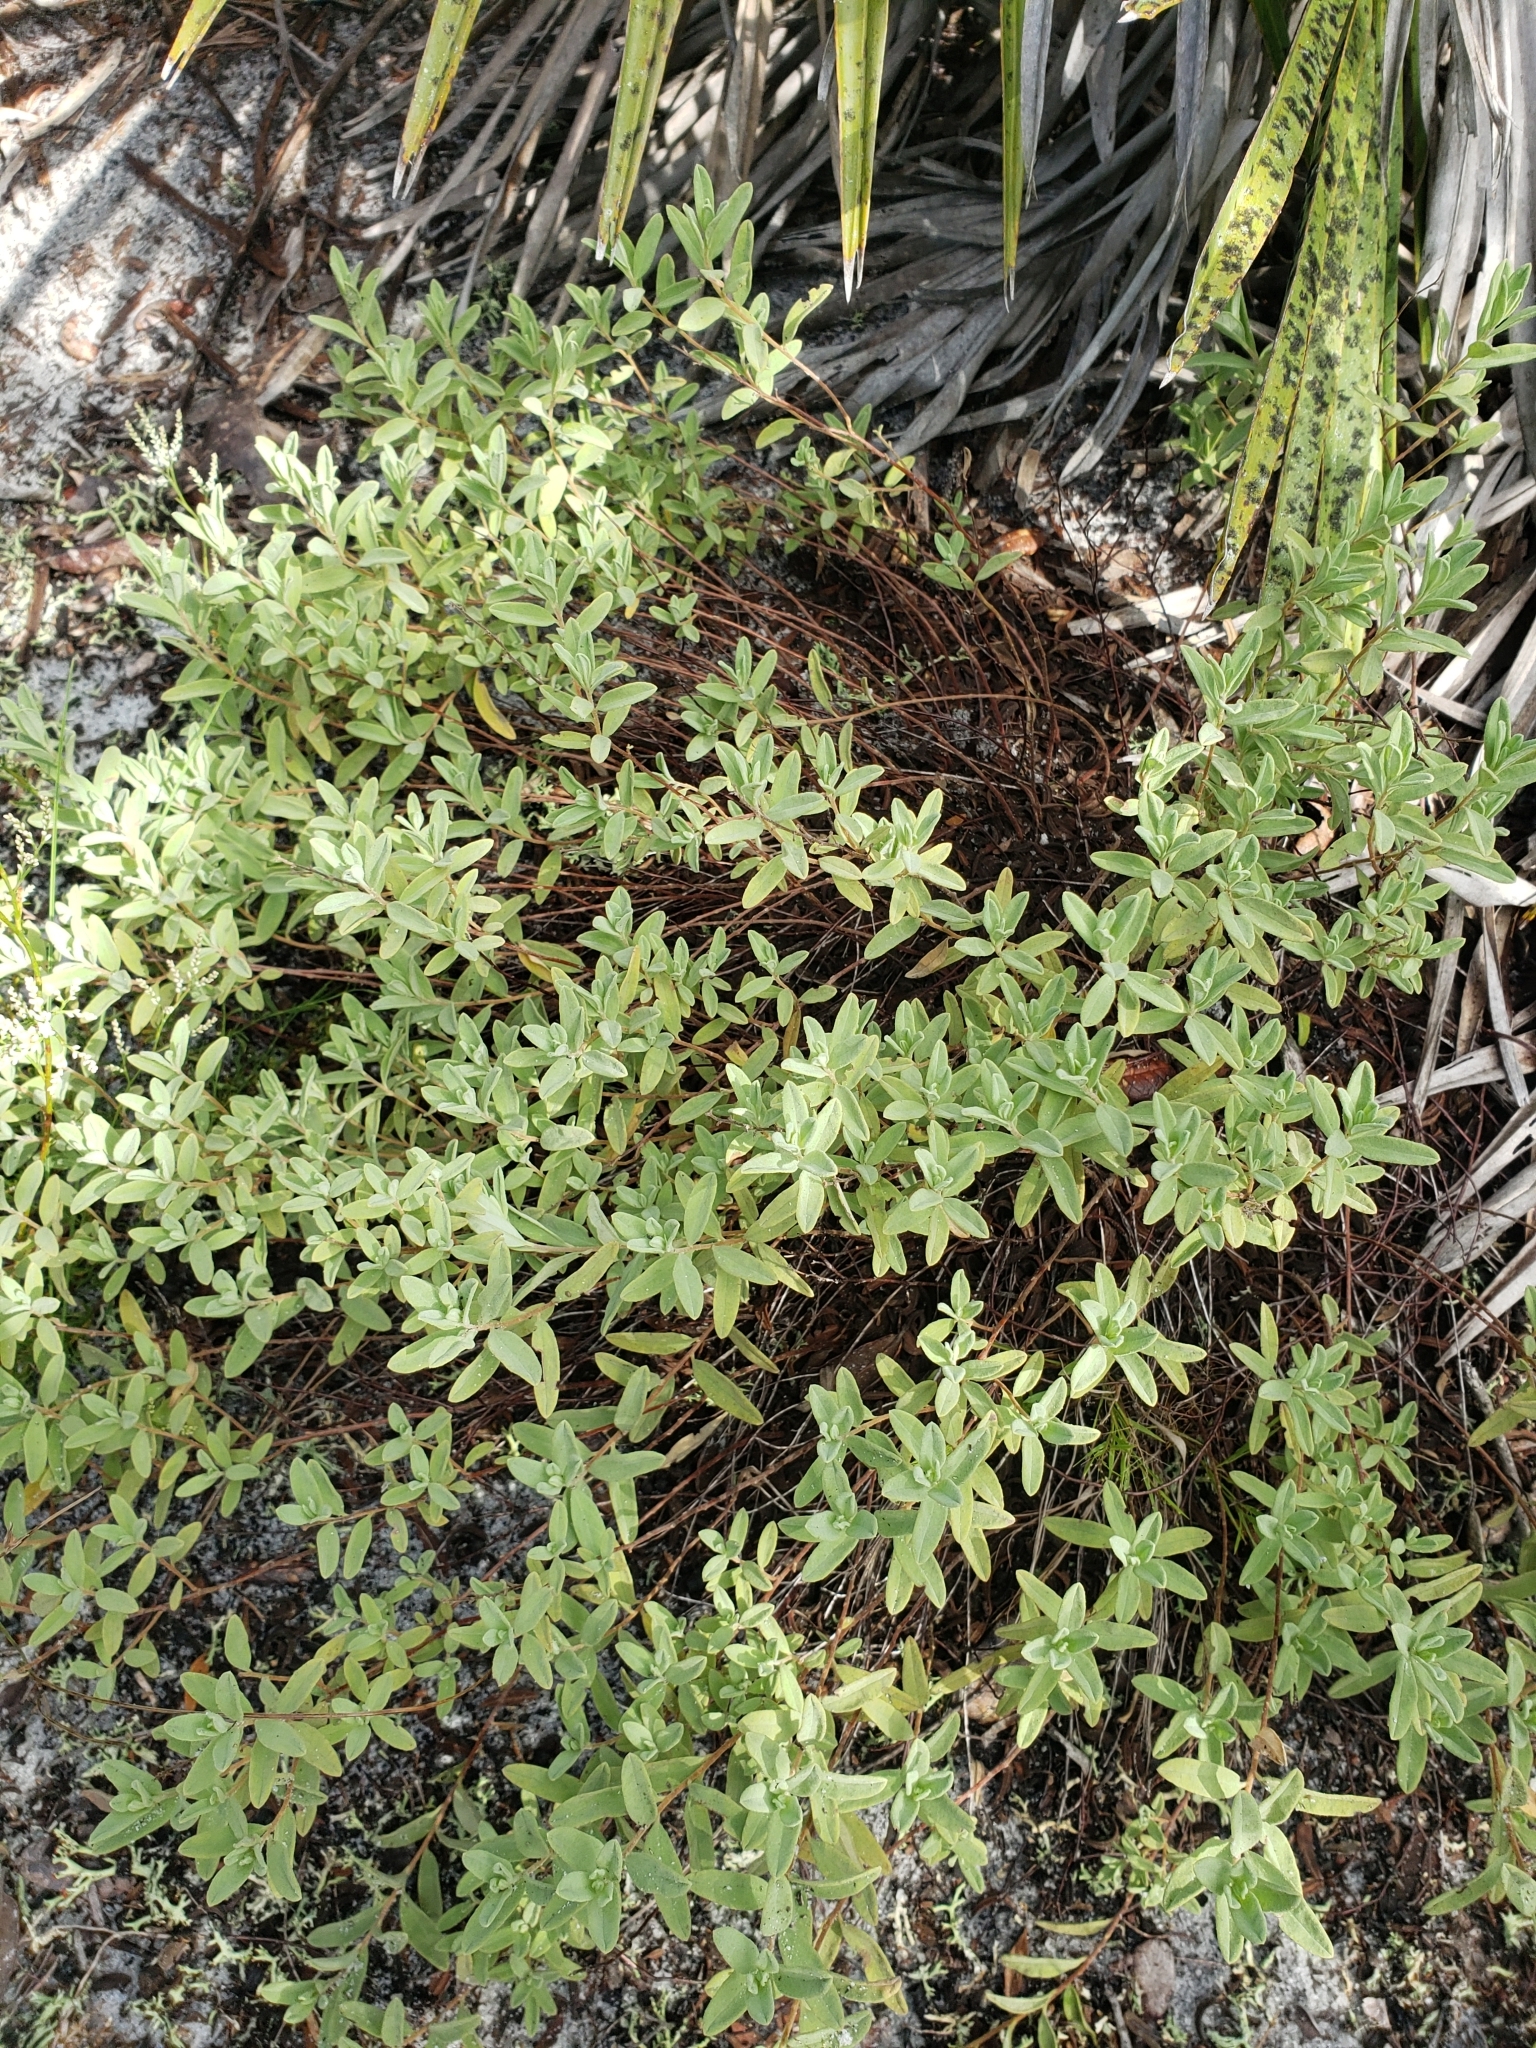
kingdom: Plantae
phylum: Tracheophyta
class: Magnoliopsida
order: Malvales
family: Cistaceae
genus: Crocanthemum
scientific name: Crocanthemum nashii
